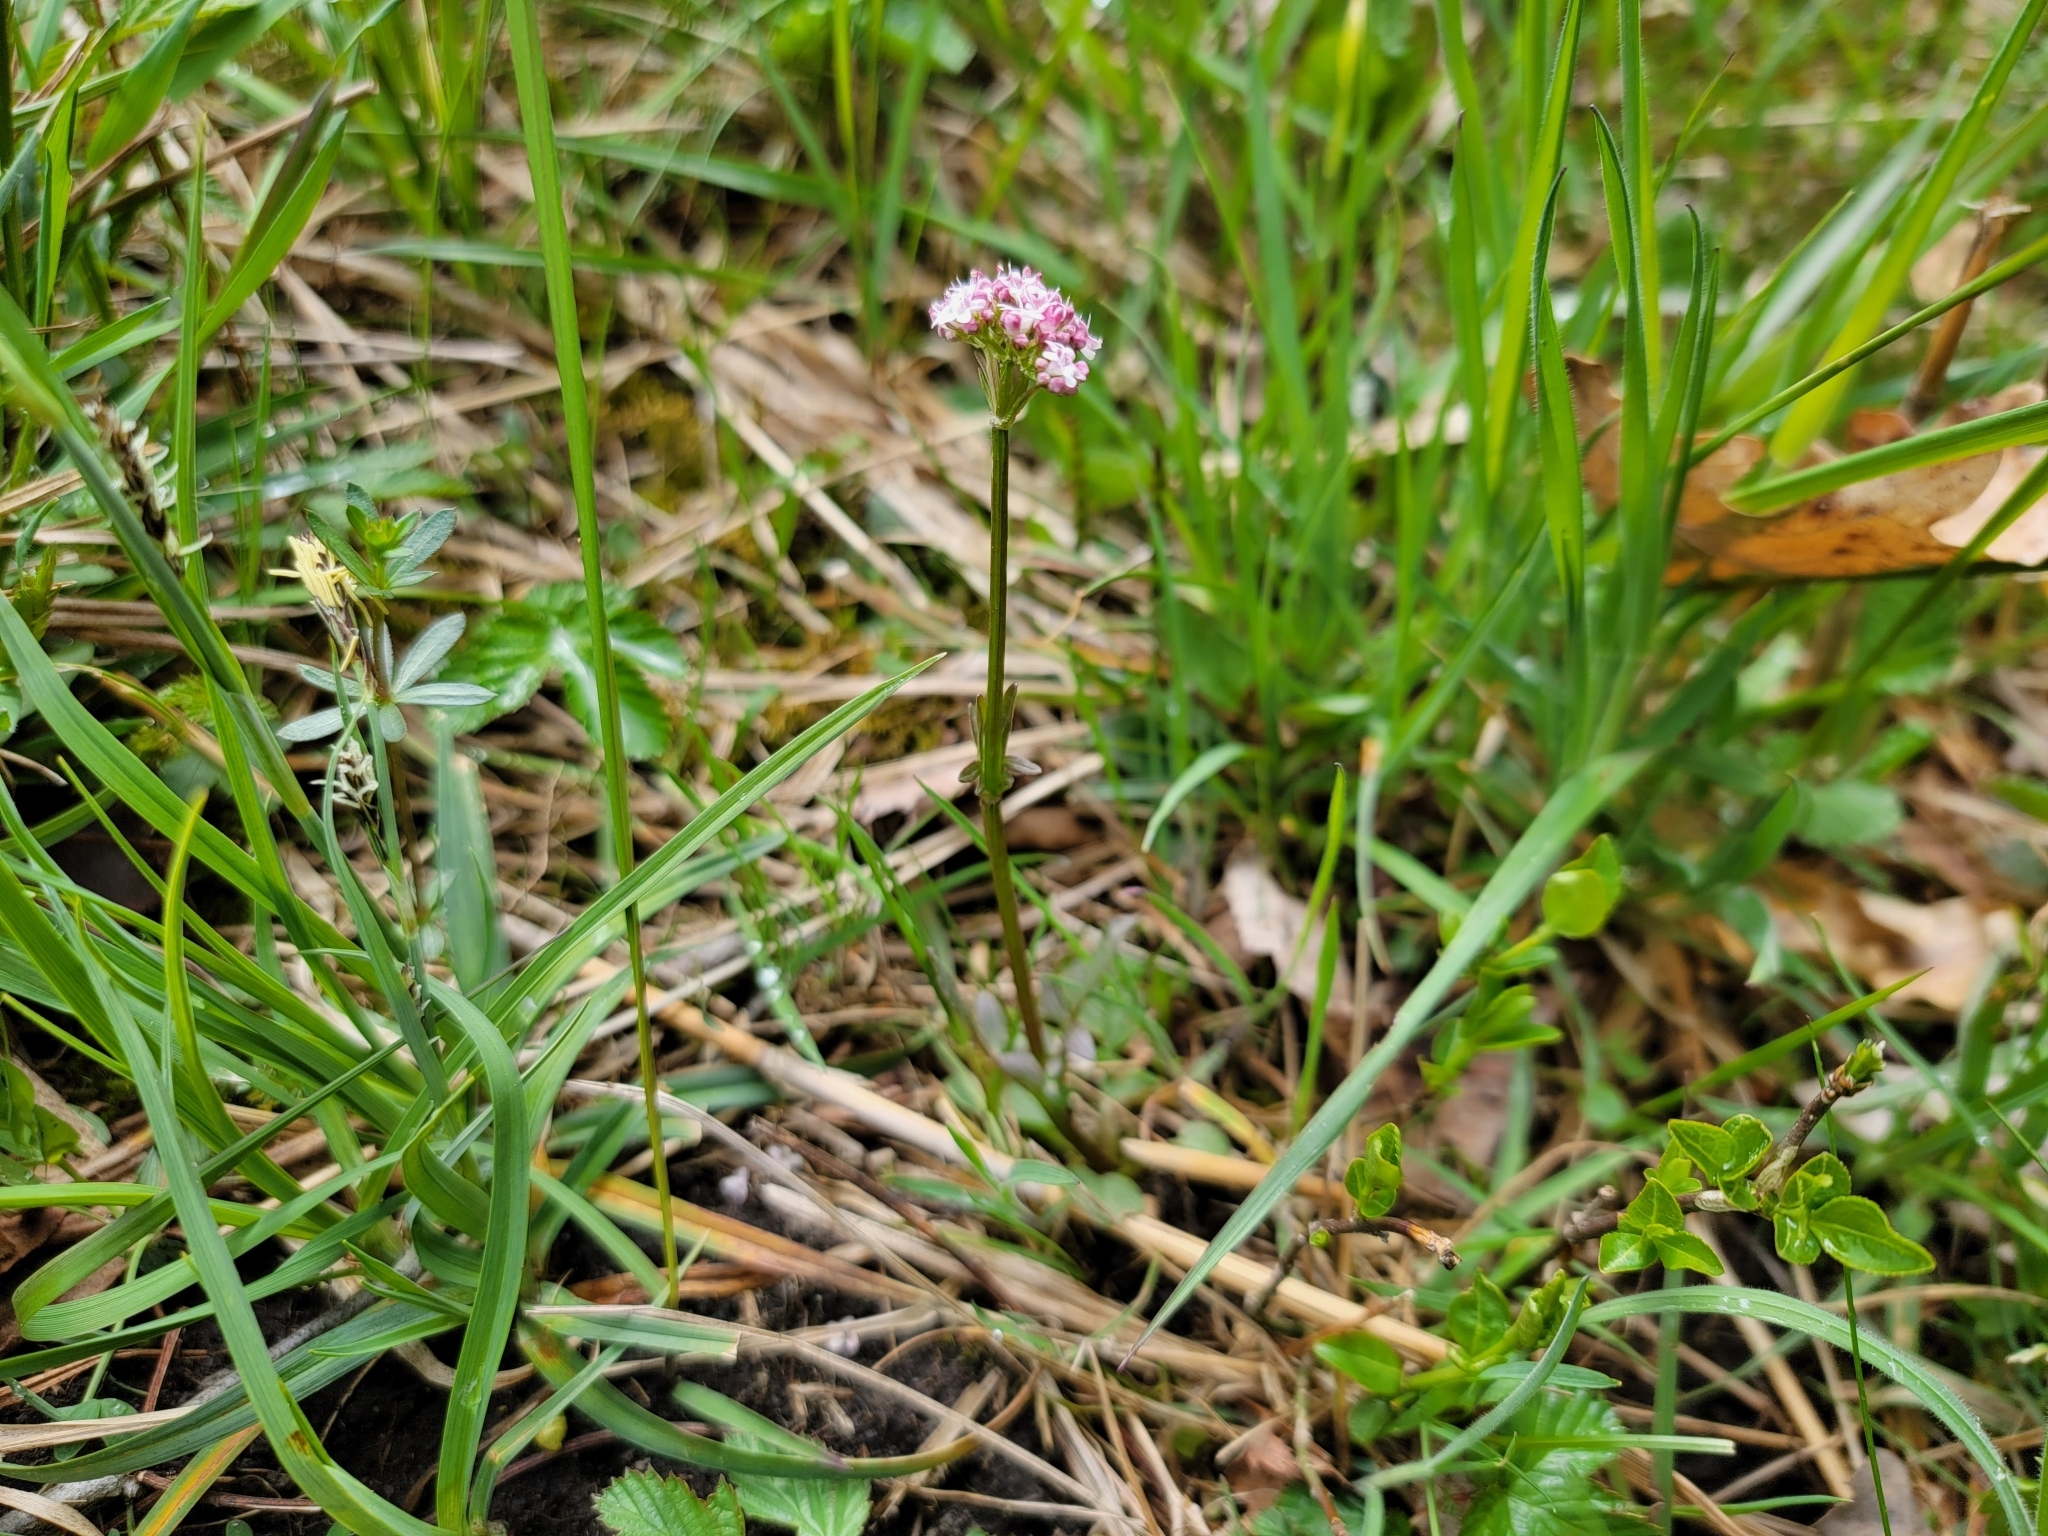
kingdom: Plantae
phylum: Tracheophyta
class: Magnoliopsida
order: Dipsacales
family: Caprifoliaceae
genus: Valeriana
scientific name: Valeriana dioica
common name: Marsh valerian
